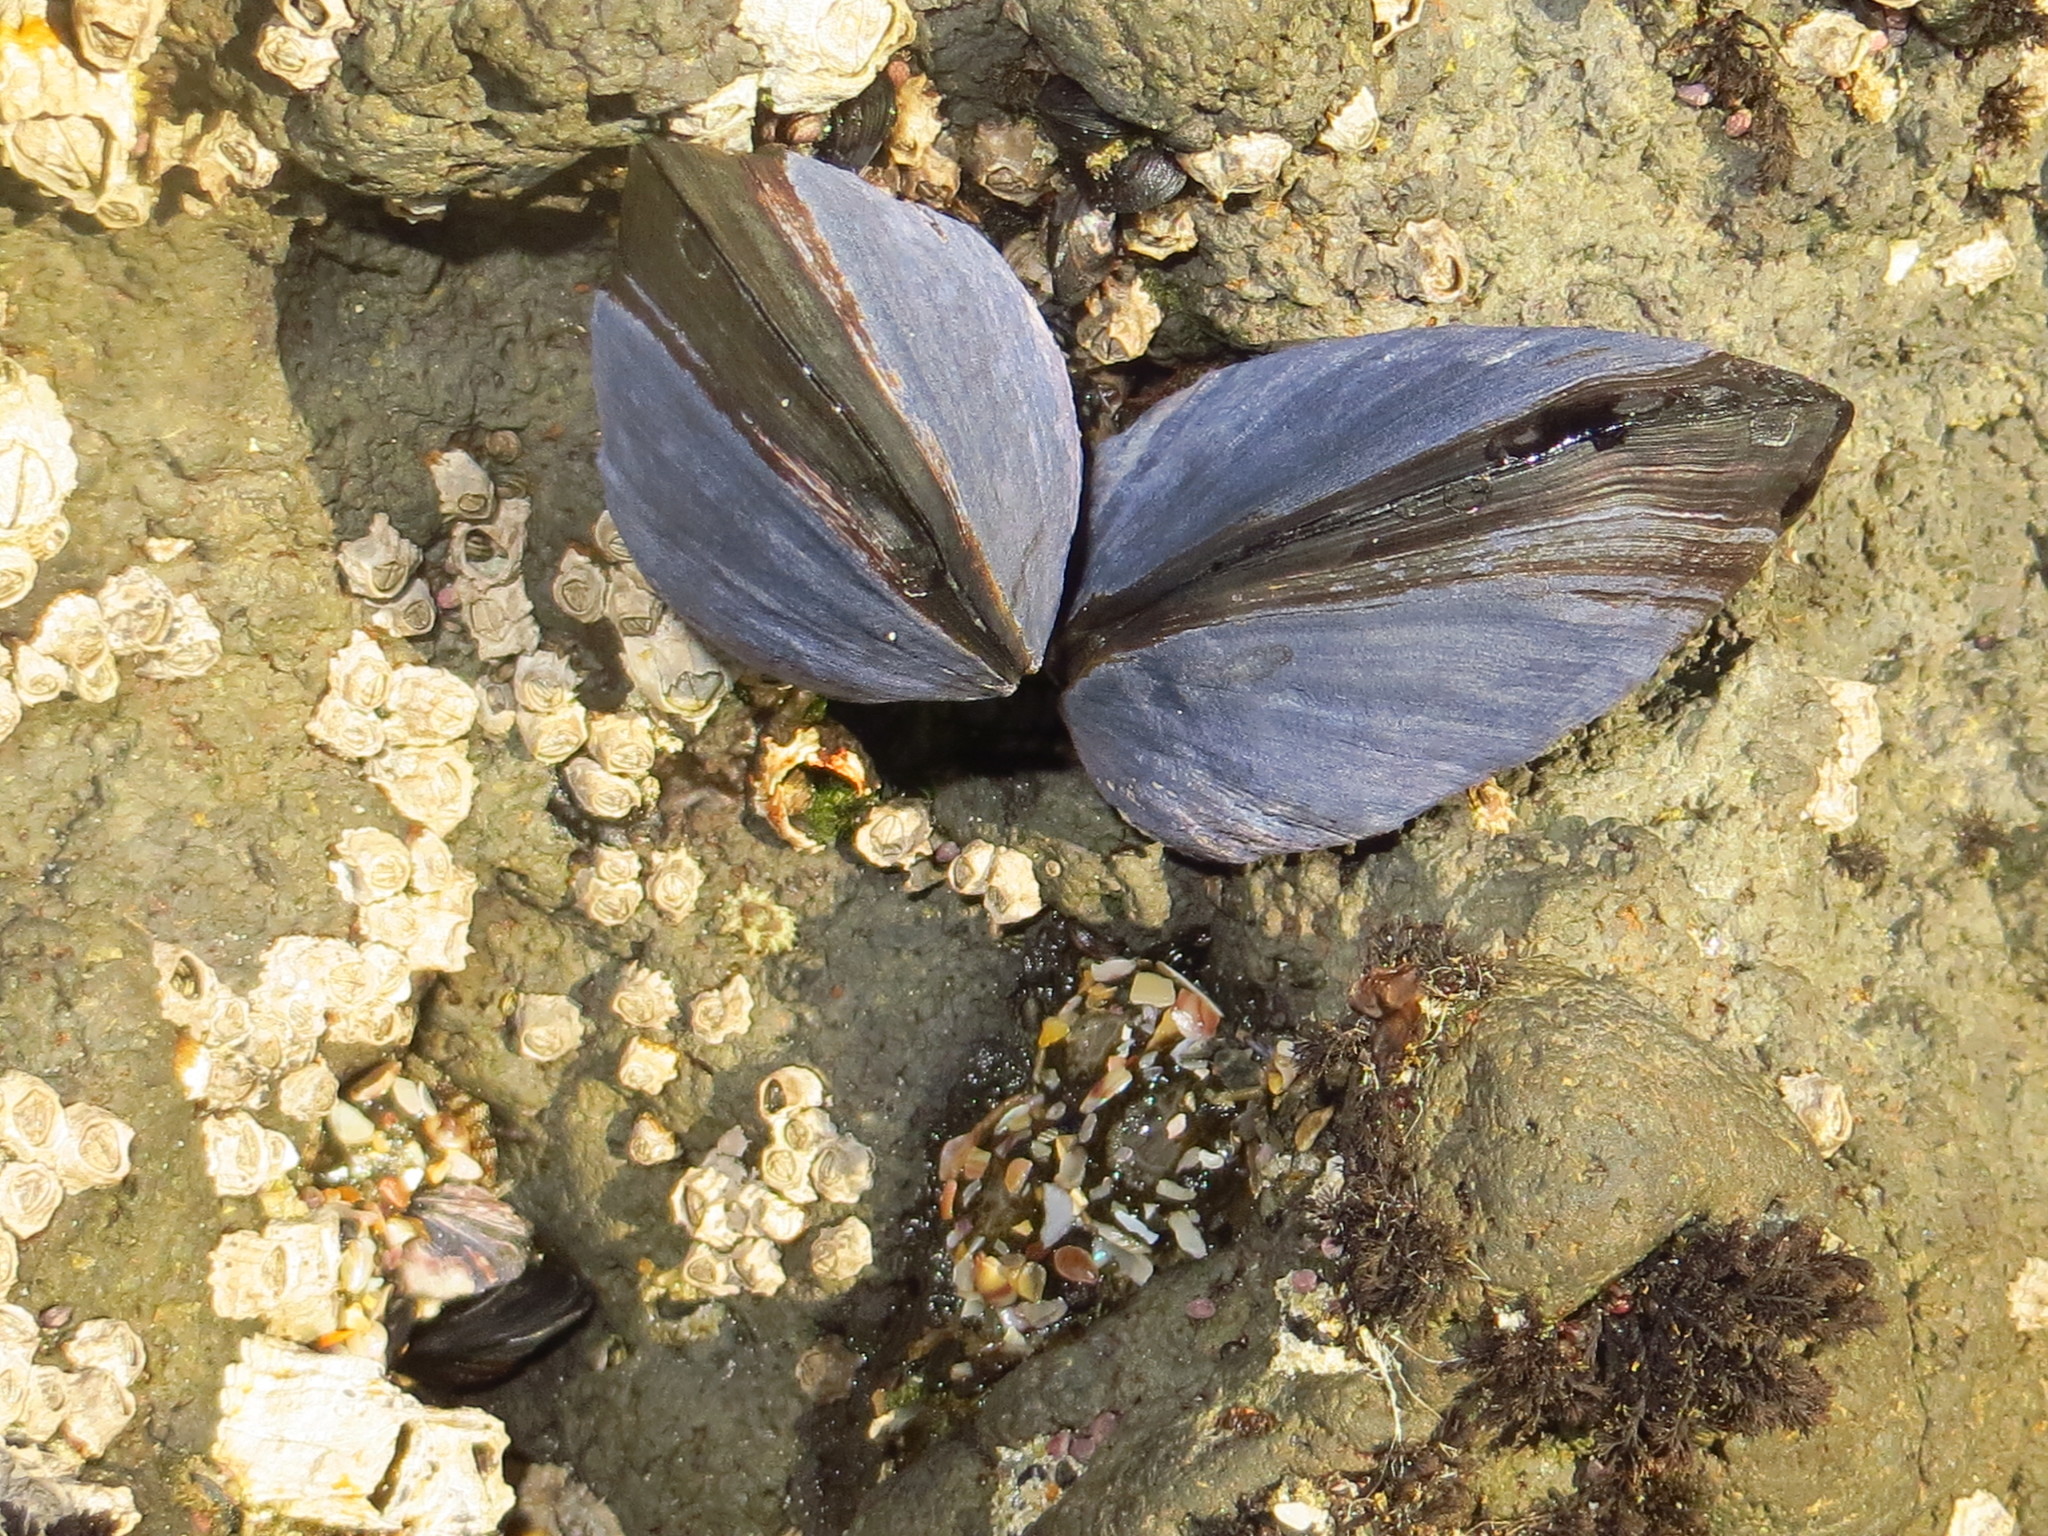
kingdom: Animalia
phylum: Mollusca
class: Bivalvia
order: Mytilida
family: Mytilidae
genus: Mytilus
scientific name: Mytilus planulatus
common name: Australian mussel
